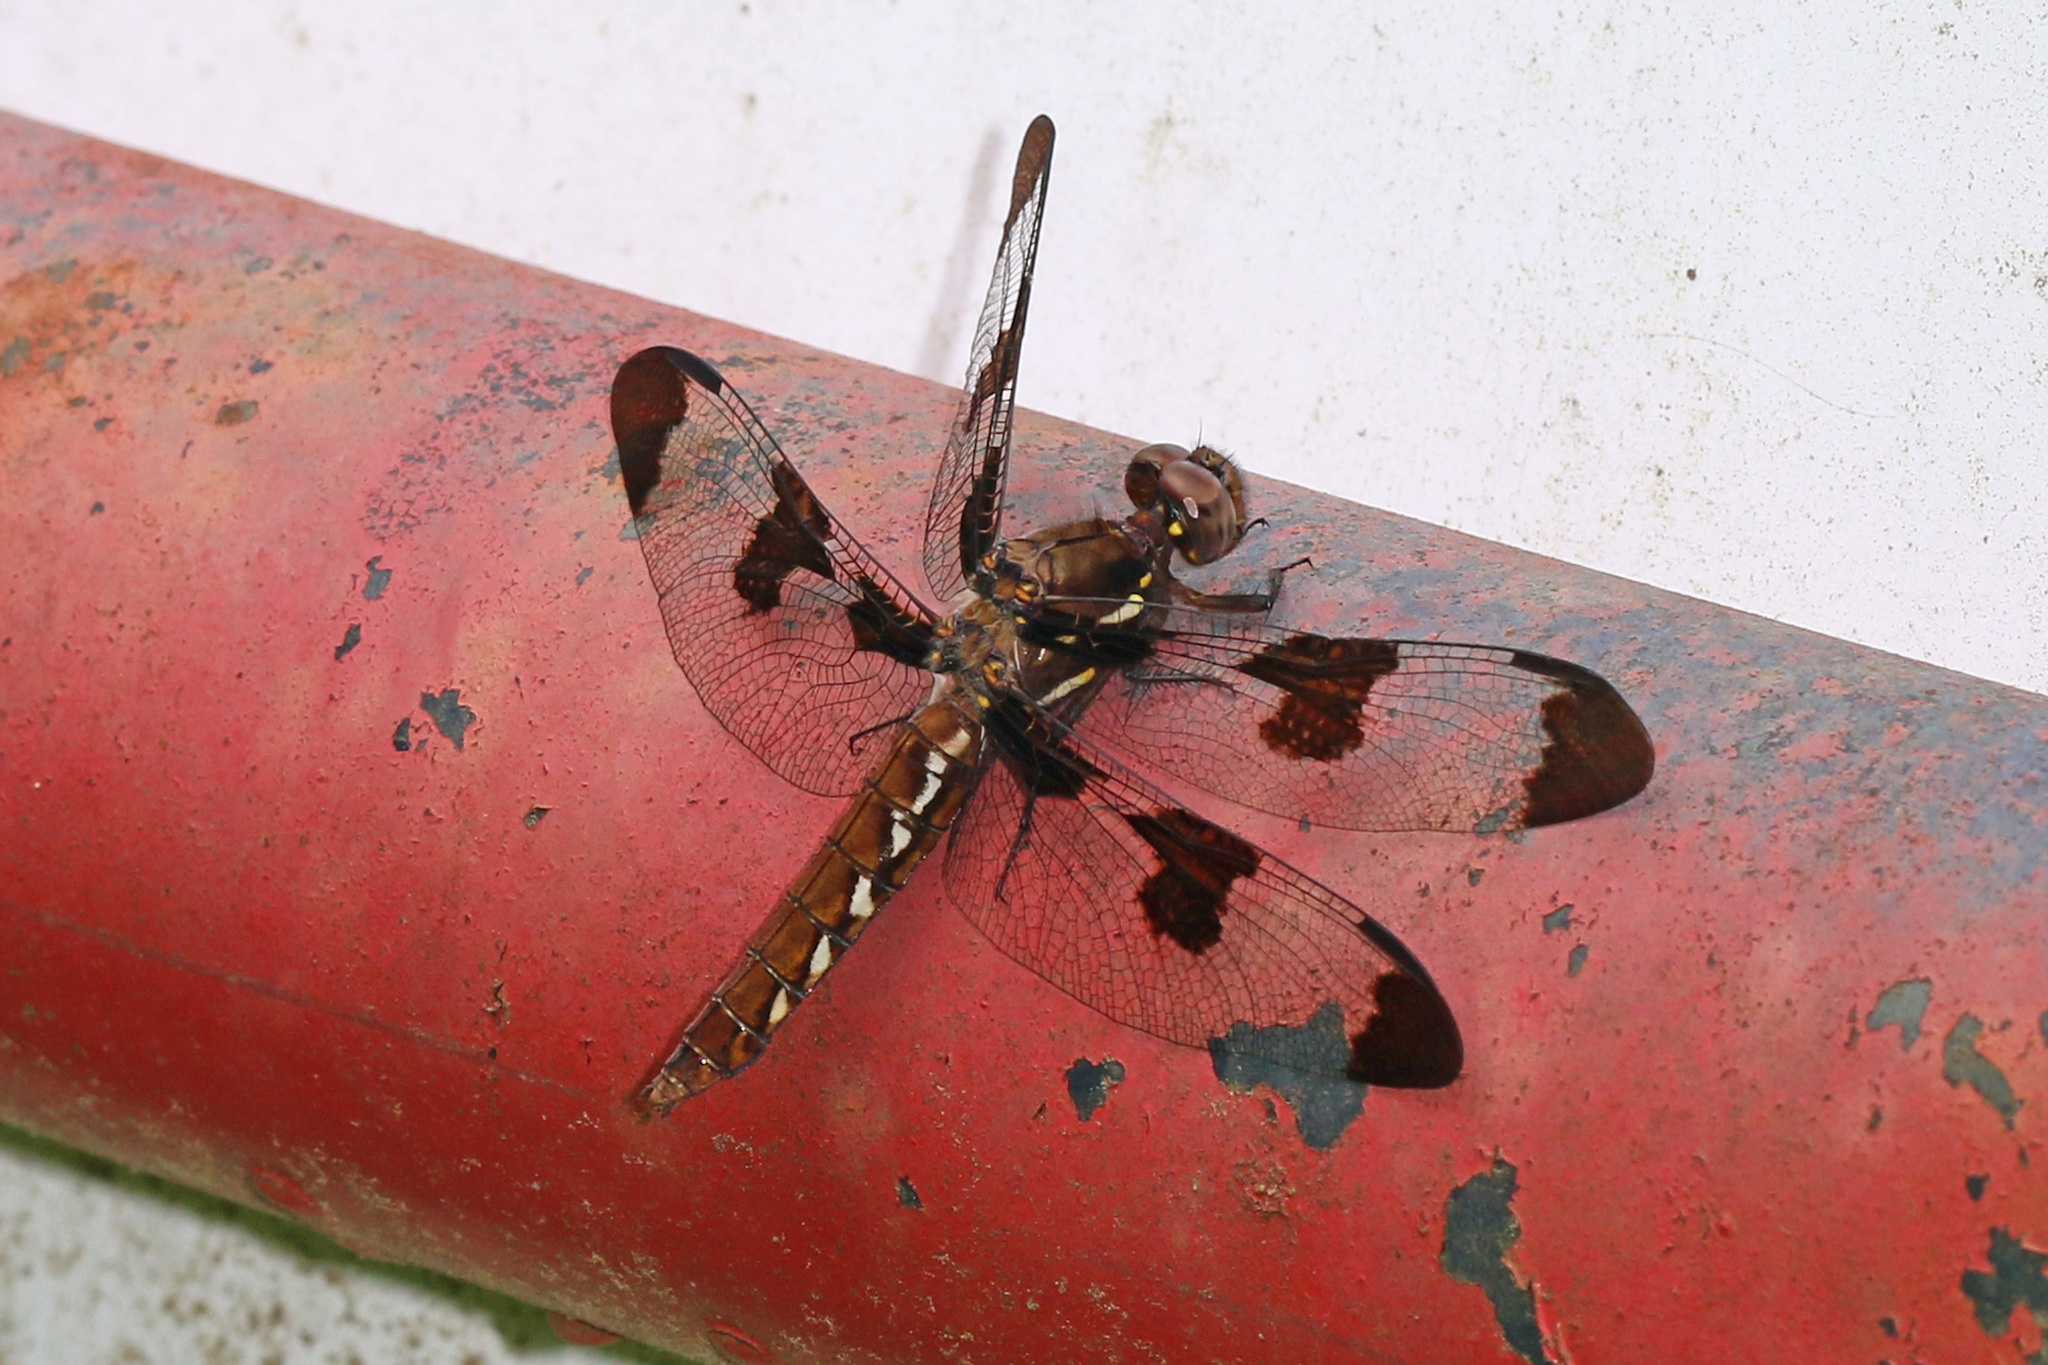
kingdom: Animalia
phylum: Arthropoda
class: Insecta
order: Odonata
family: Libellulidae
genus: Plathemis
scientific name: Plathemis lydia
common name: Common whitetail
